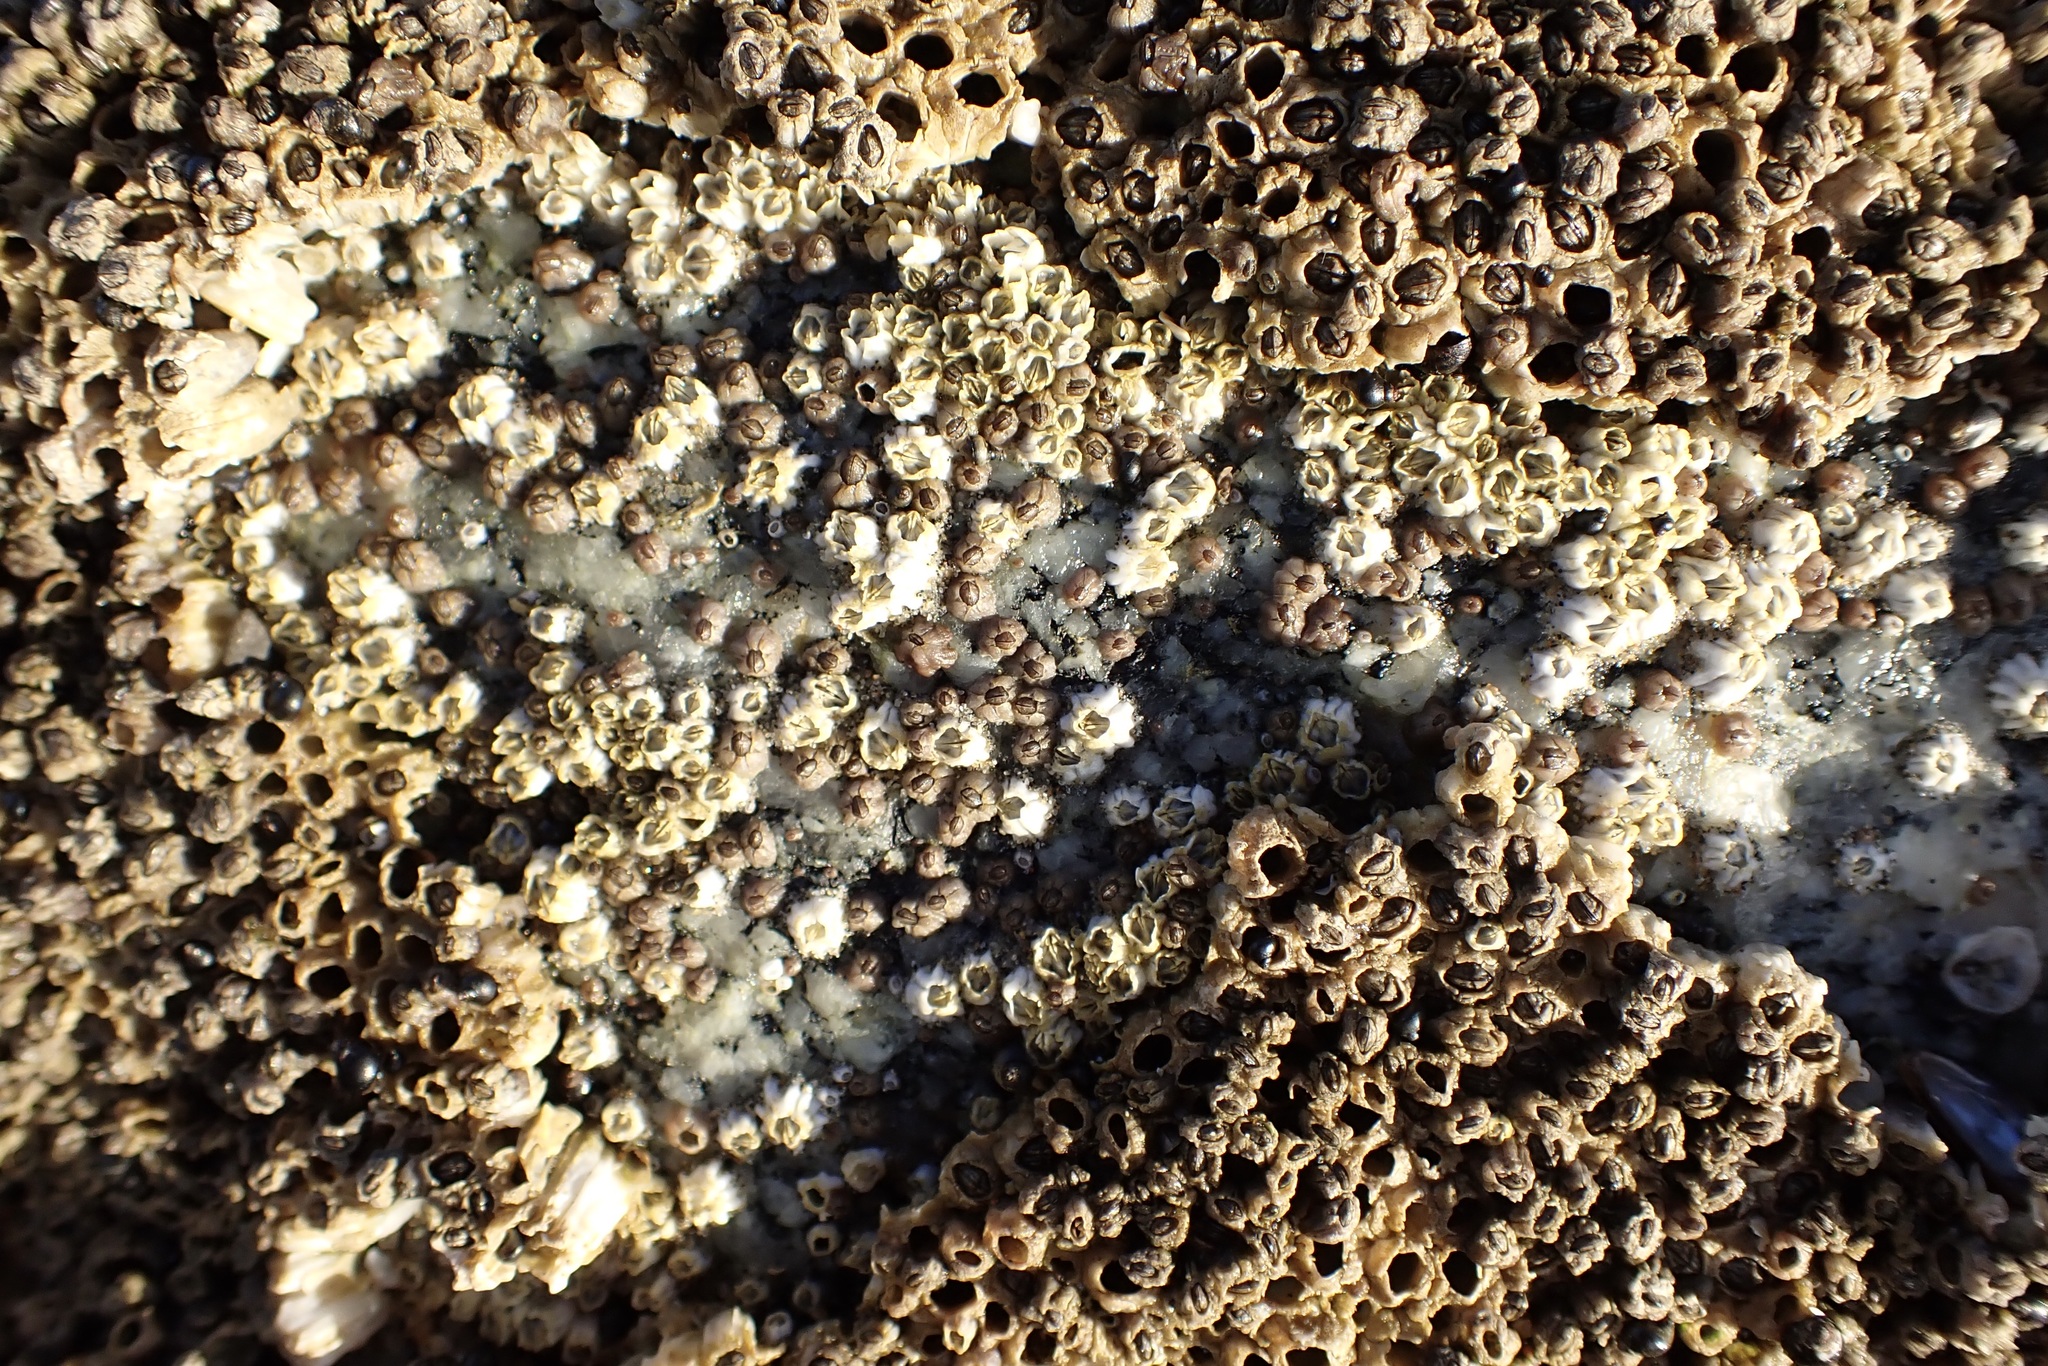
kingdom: Animalia
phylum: Arthropoda
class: Maxillopoda
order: Sessilia
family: Balanidae
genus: Balanus
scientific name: Balanus glandula
